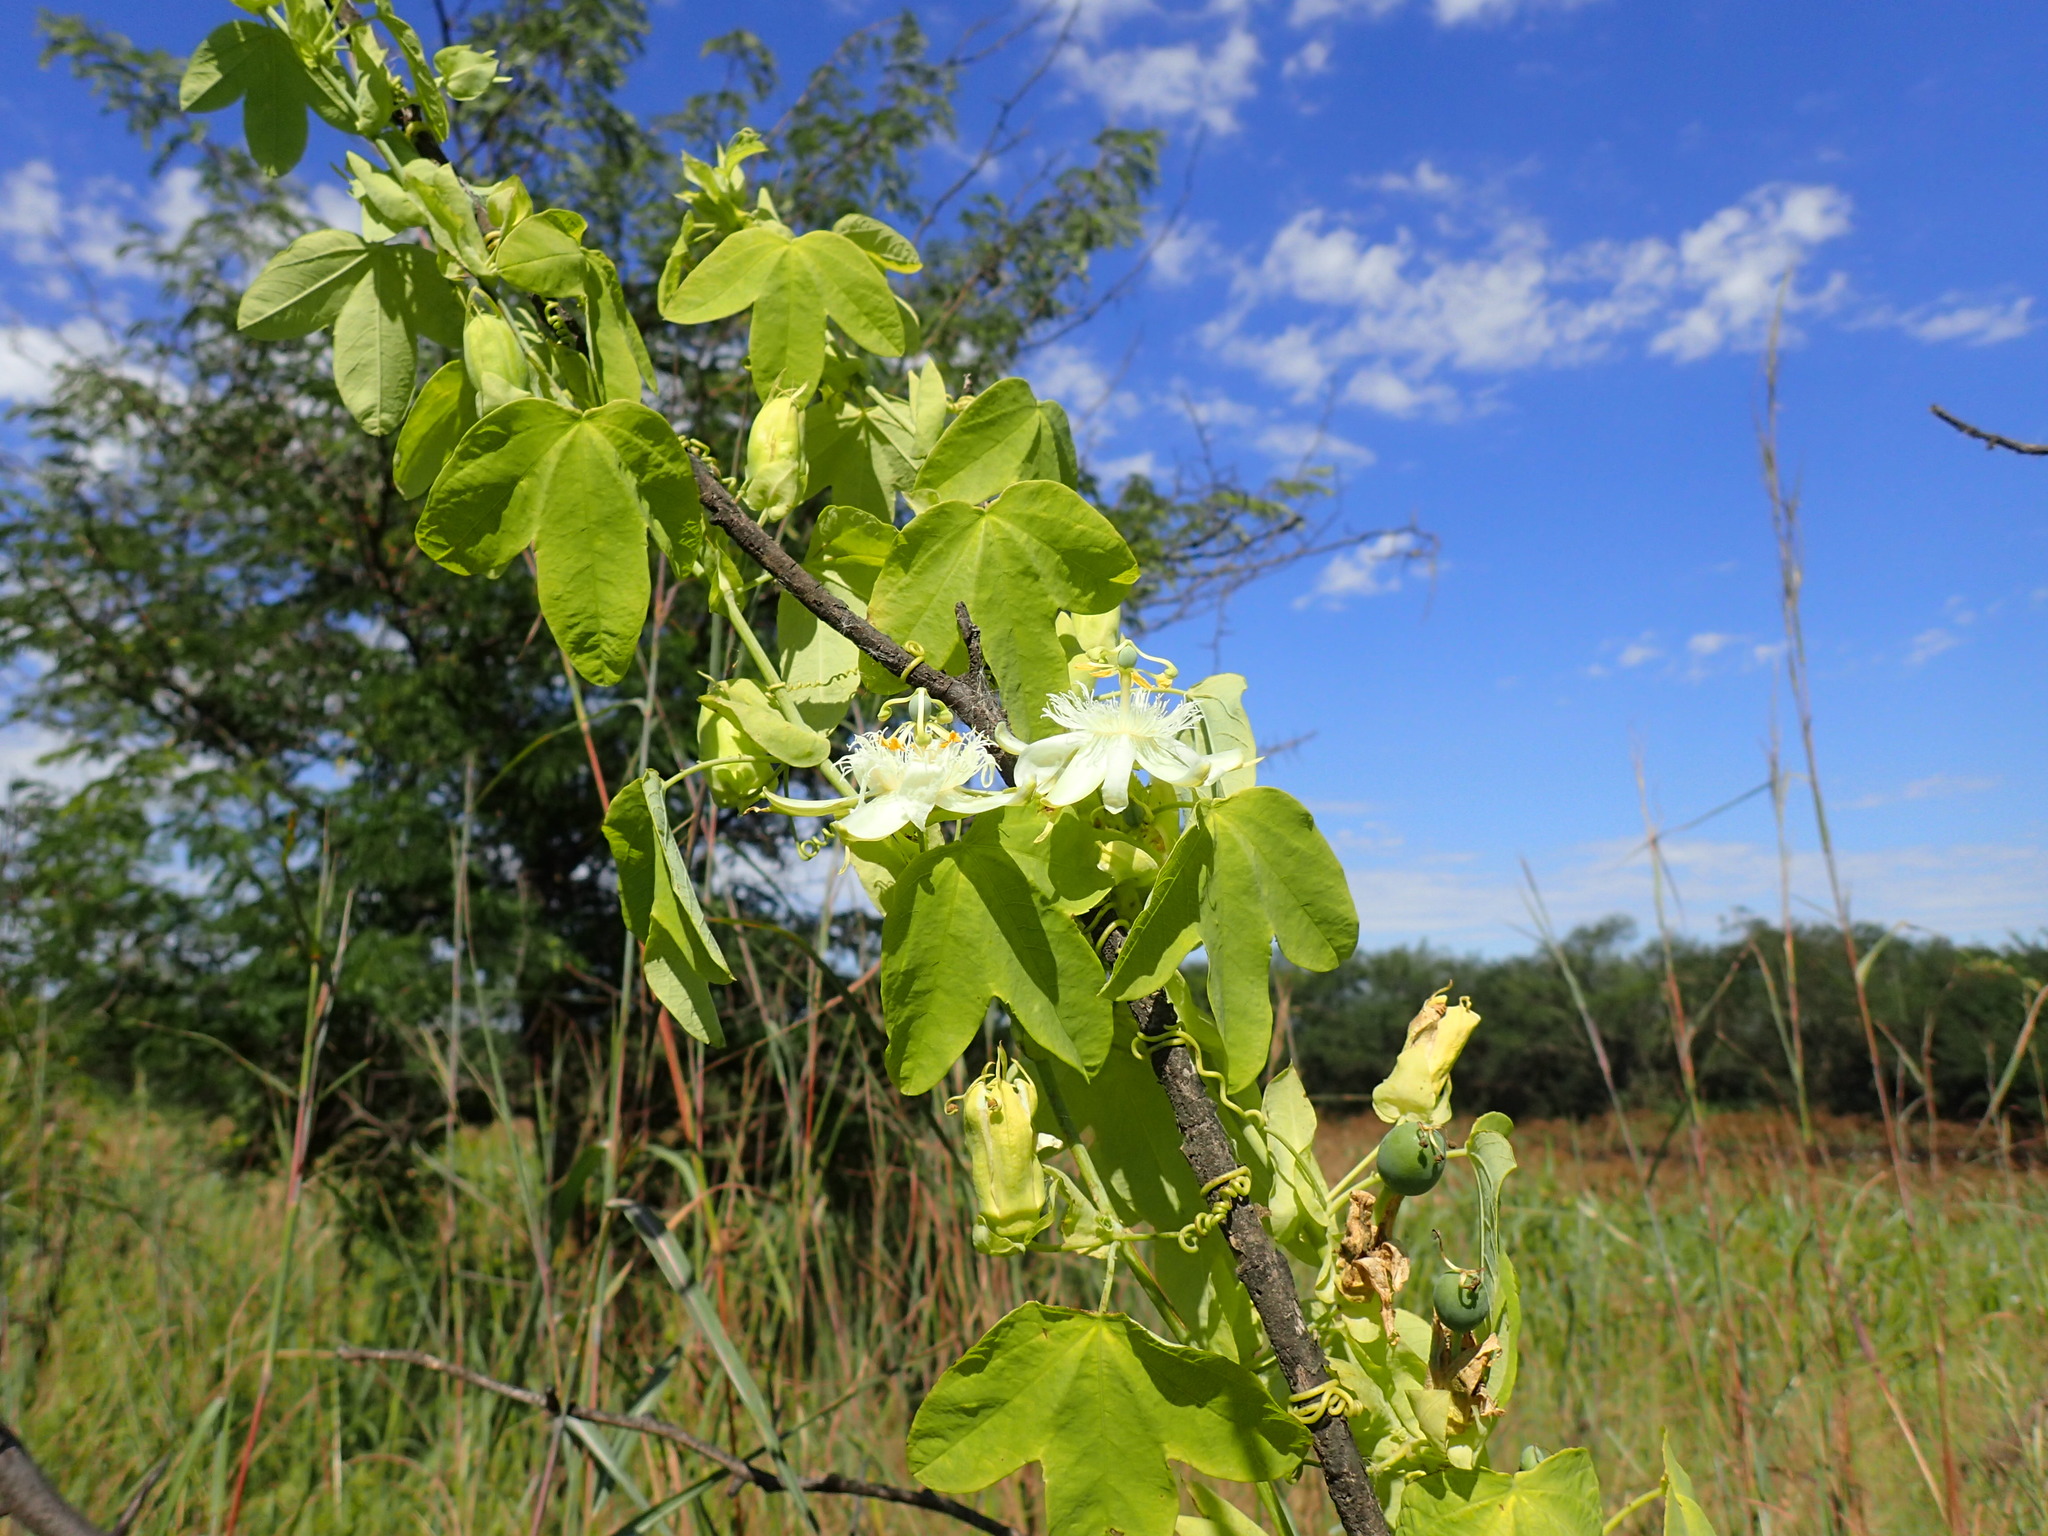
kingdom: Plantae
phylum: Tracheophyta
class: Magnoliopsida
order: Malpighiales
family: Passifloraceae
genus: Passiflora
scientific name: Passiflora subpeltata
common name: White passionflower
